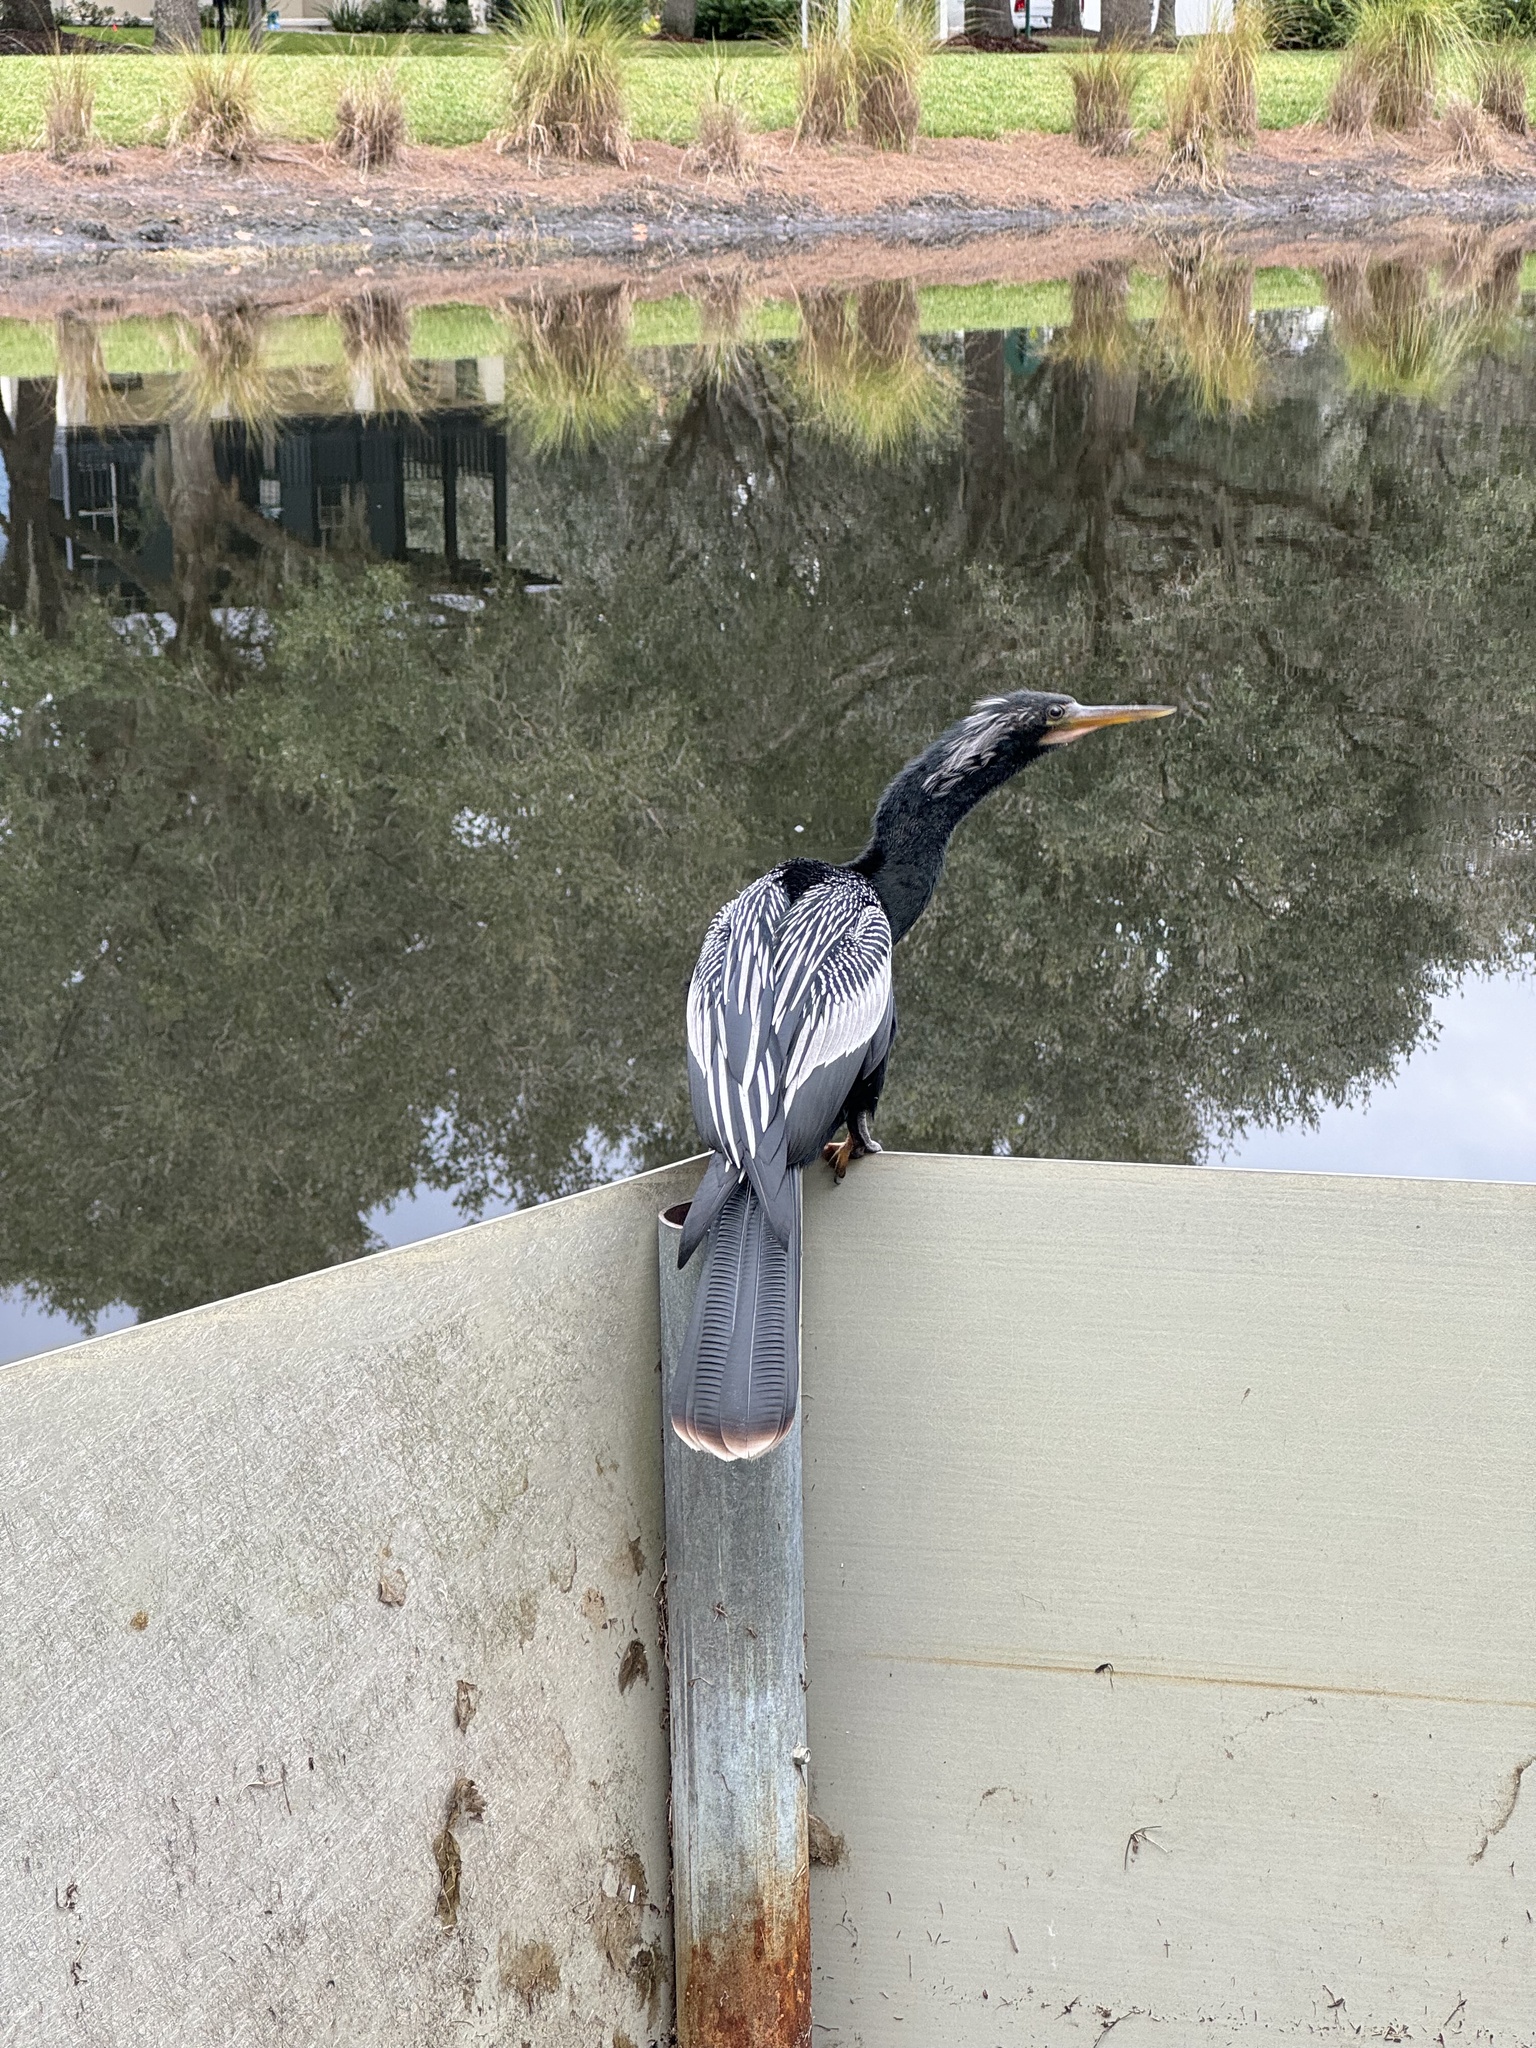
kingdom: Animalia
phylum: Chordata
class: Aves
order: Suliformes
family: Anhingidae
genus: Anhinga
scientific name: Anhinga anhinga
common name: Anhinga
